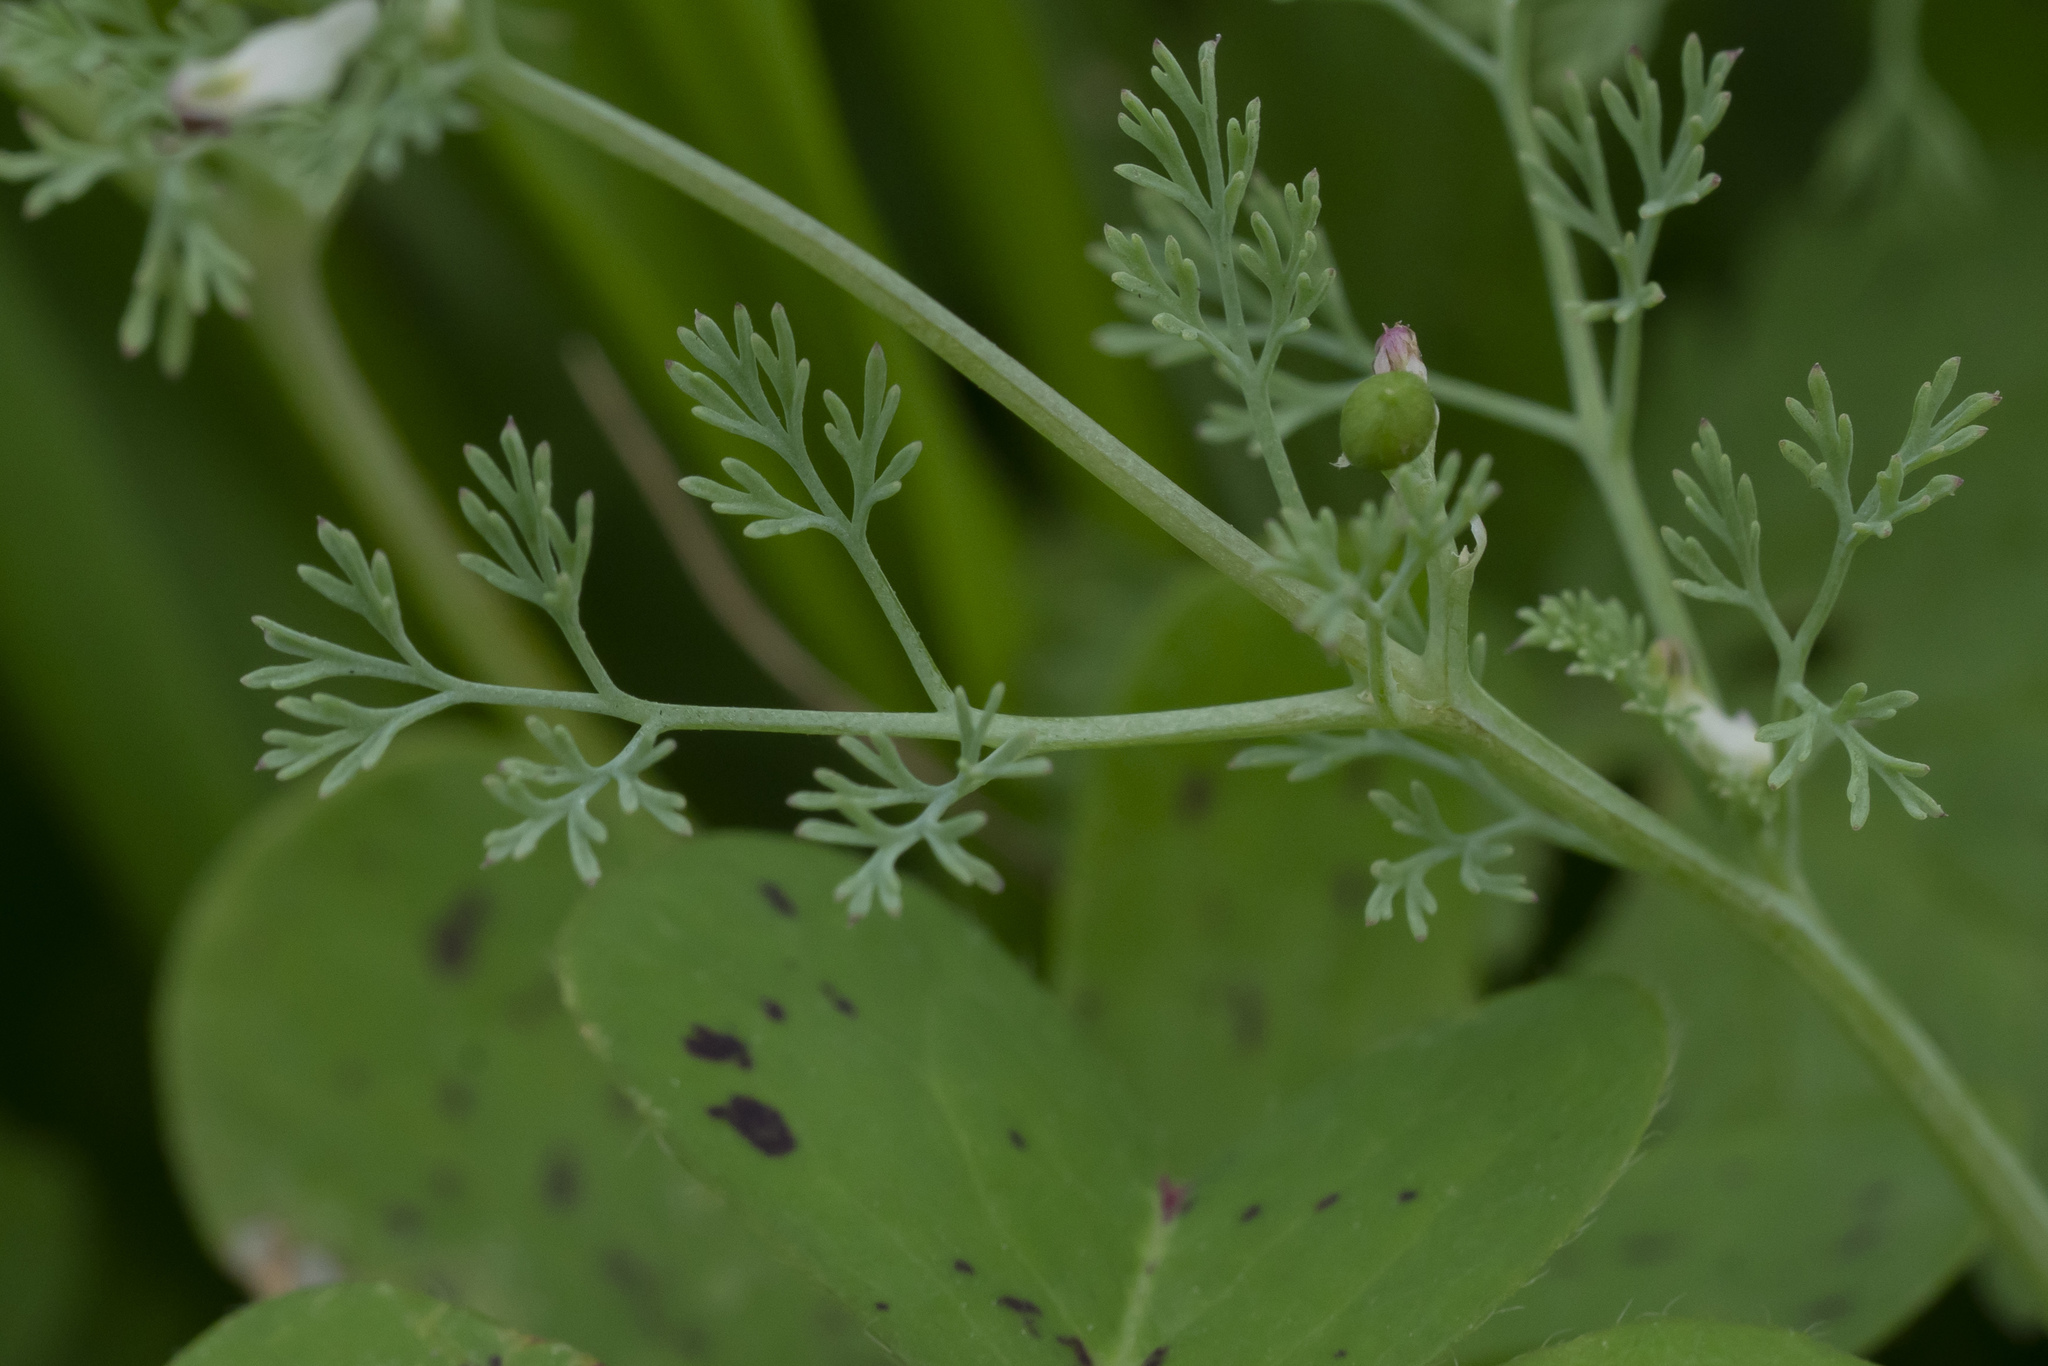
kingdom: Plantae
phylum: Tracheophyta
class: Magnoliopsida
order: Ranunculales
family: Papaveraceae
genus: Fumaria
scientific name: Fumaria parviflora
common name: Fine-leaved fumitory
